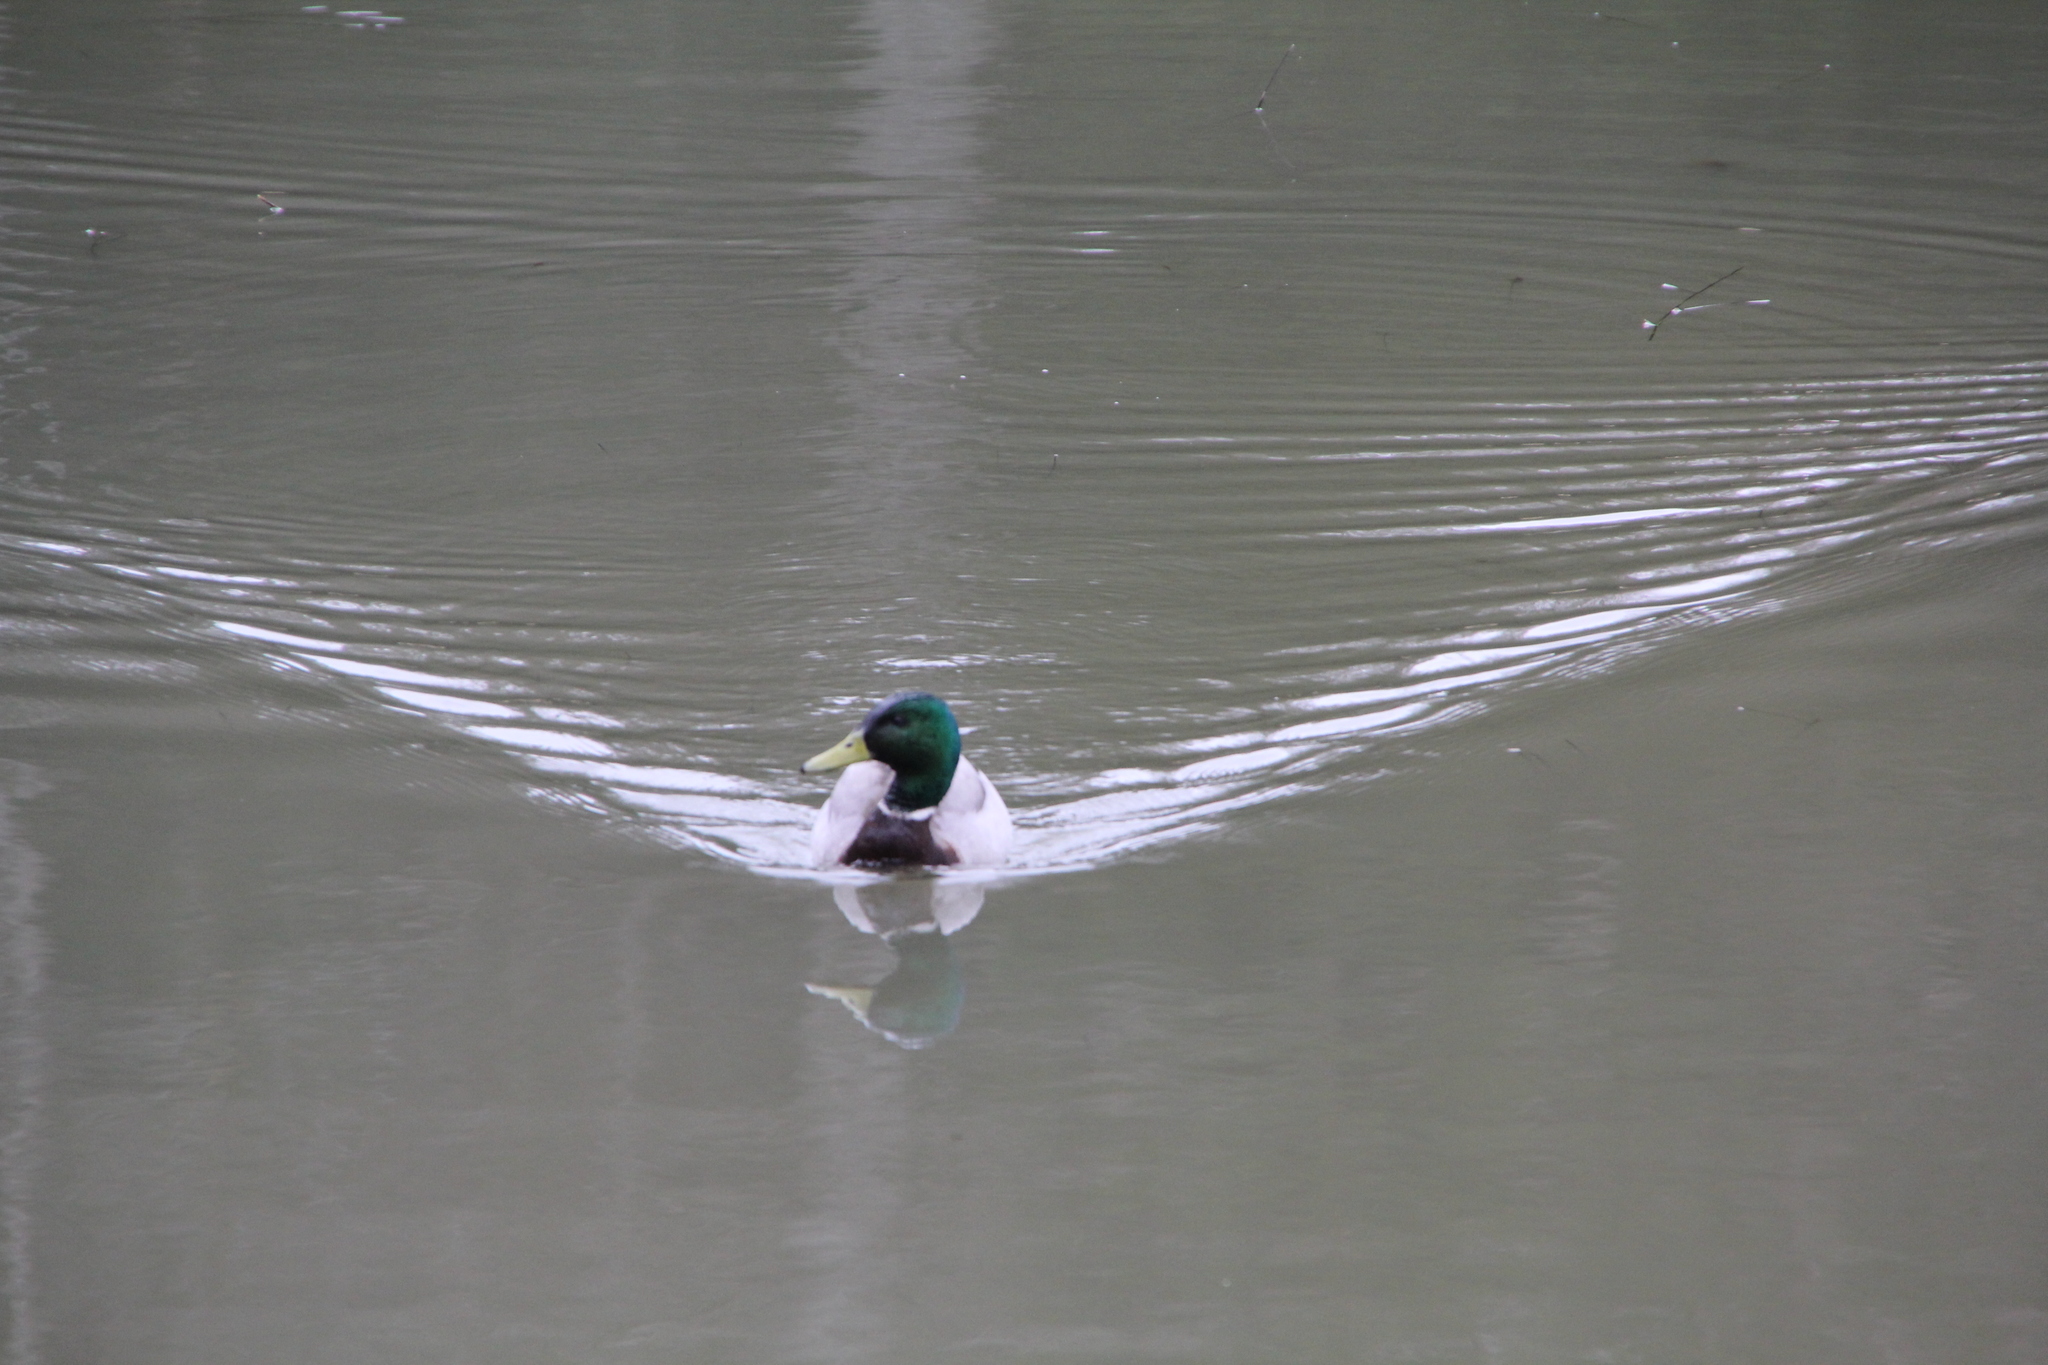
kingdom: Animalia
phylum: Chordata
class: Aves
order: Anseriformes
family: Anatidae
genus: Anas
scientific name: Anas platyrhynchos
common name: Mallard
